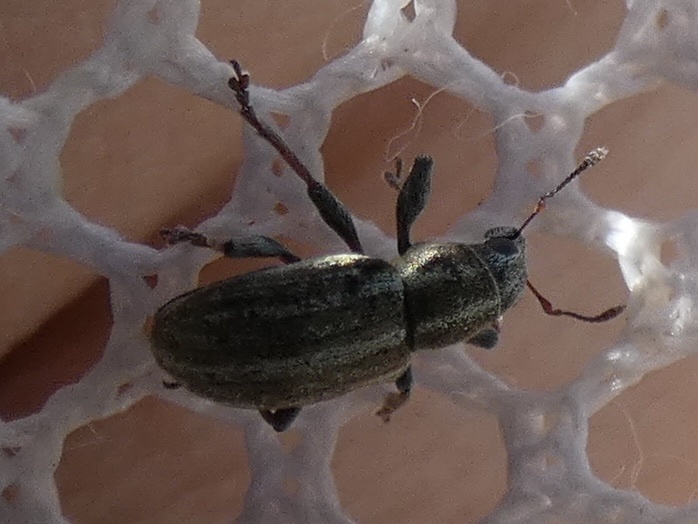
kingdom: Animalia
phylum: Arthropoda
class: Insecta
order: Coleoptera
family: Curculionidae
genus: Sitona
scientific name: Sitona lineatus
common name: Weevil
